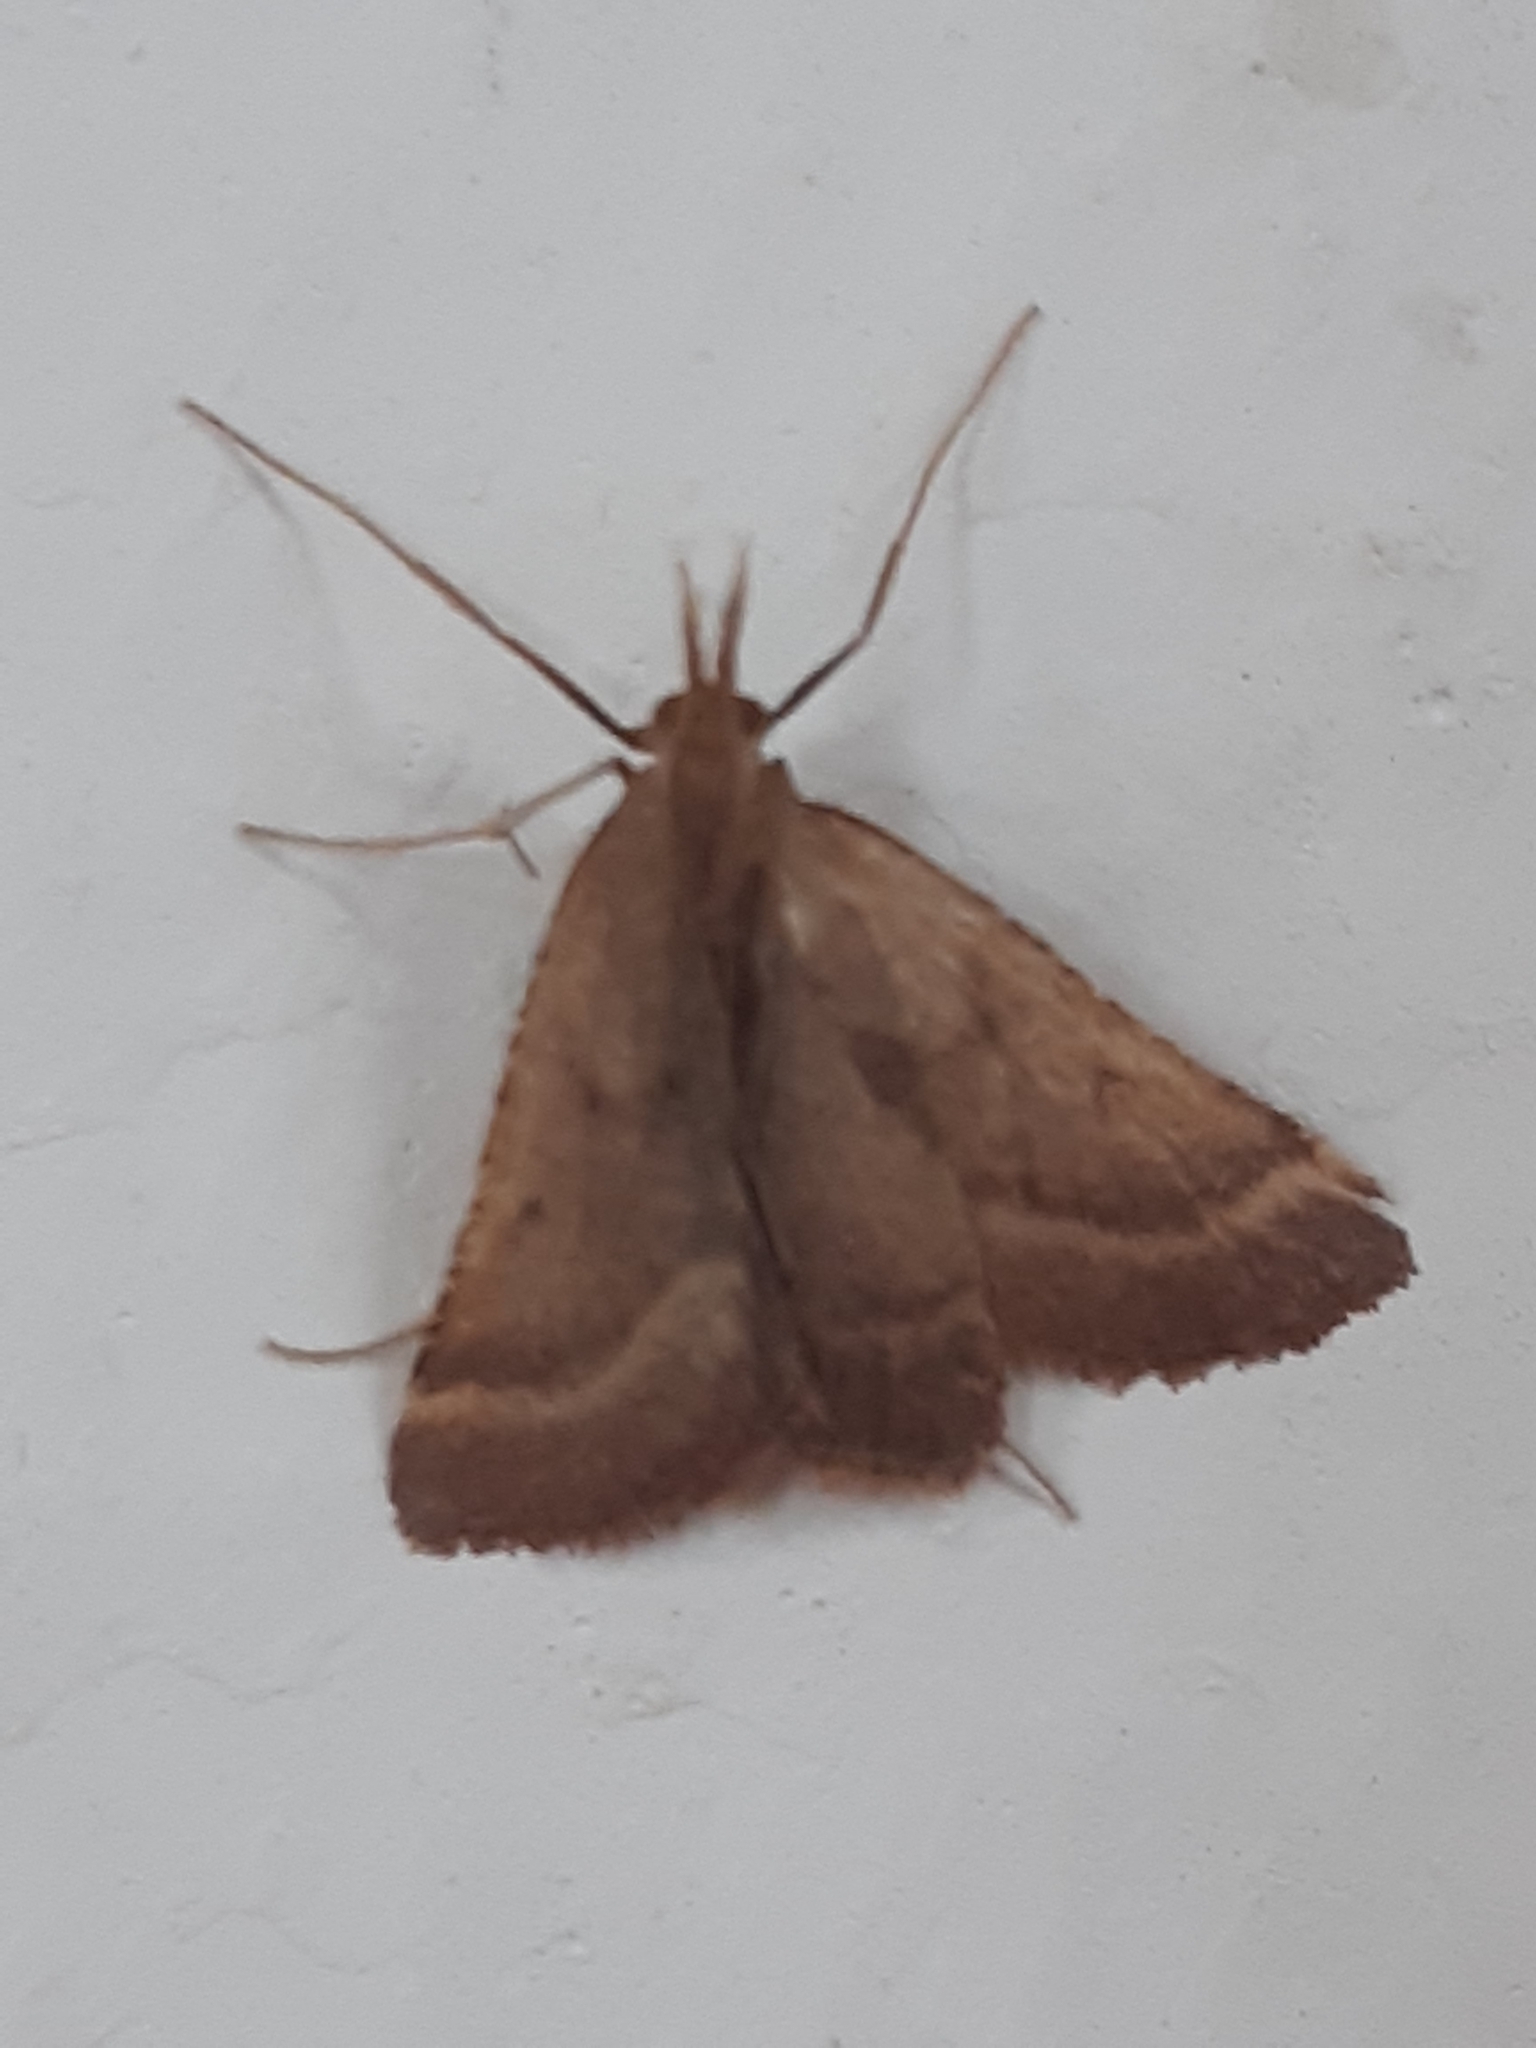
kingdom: Animalia
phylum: Arthropoda
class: Insecta
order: Lepidoptera
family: Pyralidae
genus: Synaphe
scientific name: Synaphe punctalis
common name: Long-legged tabby
